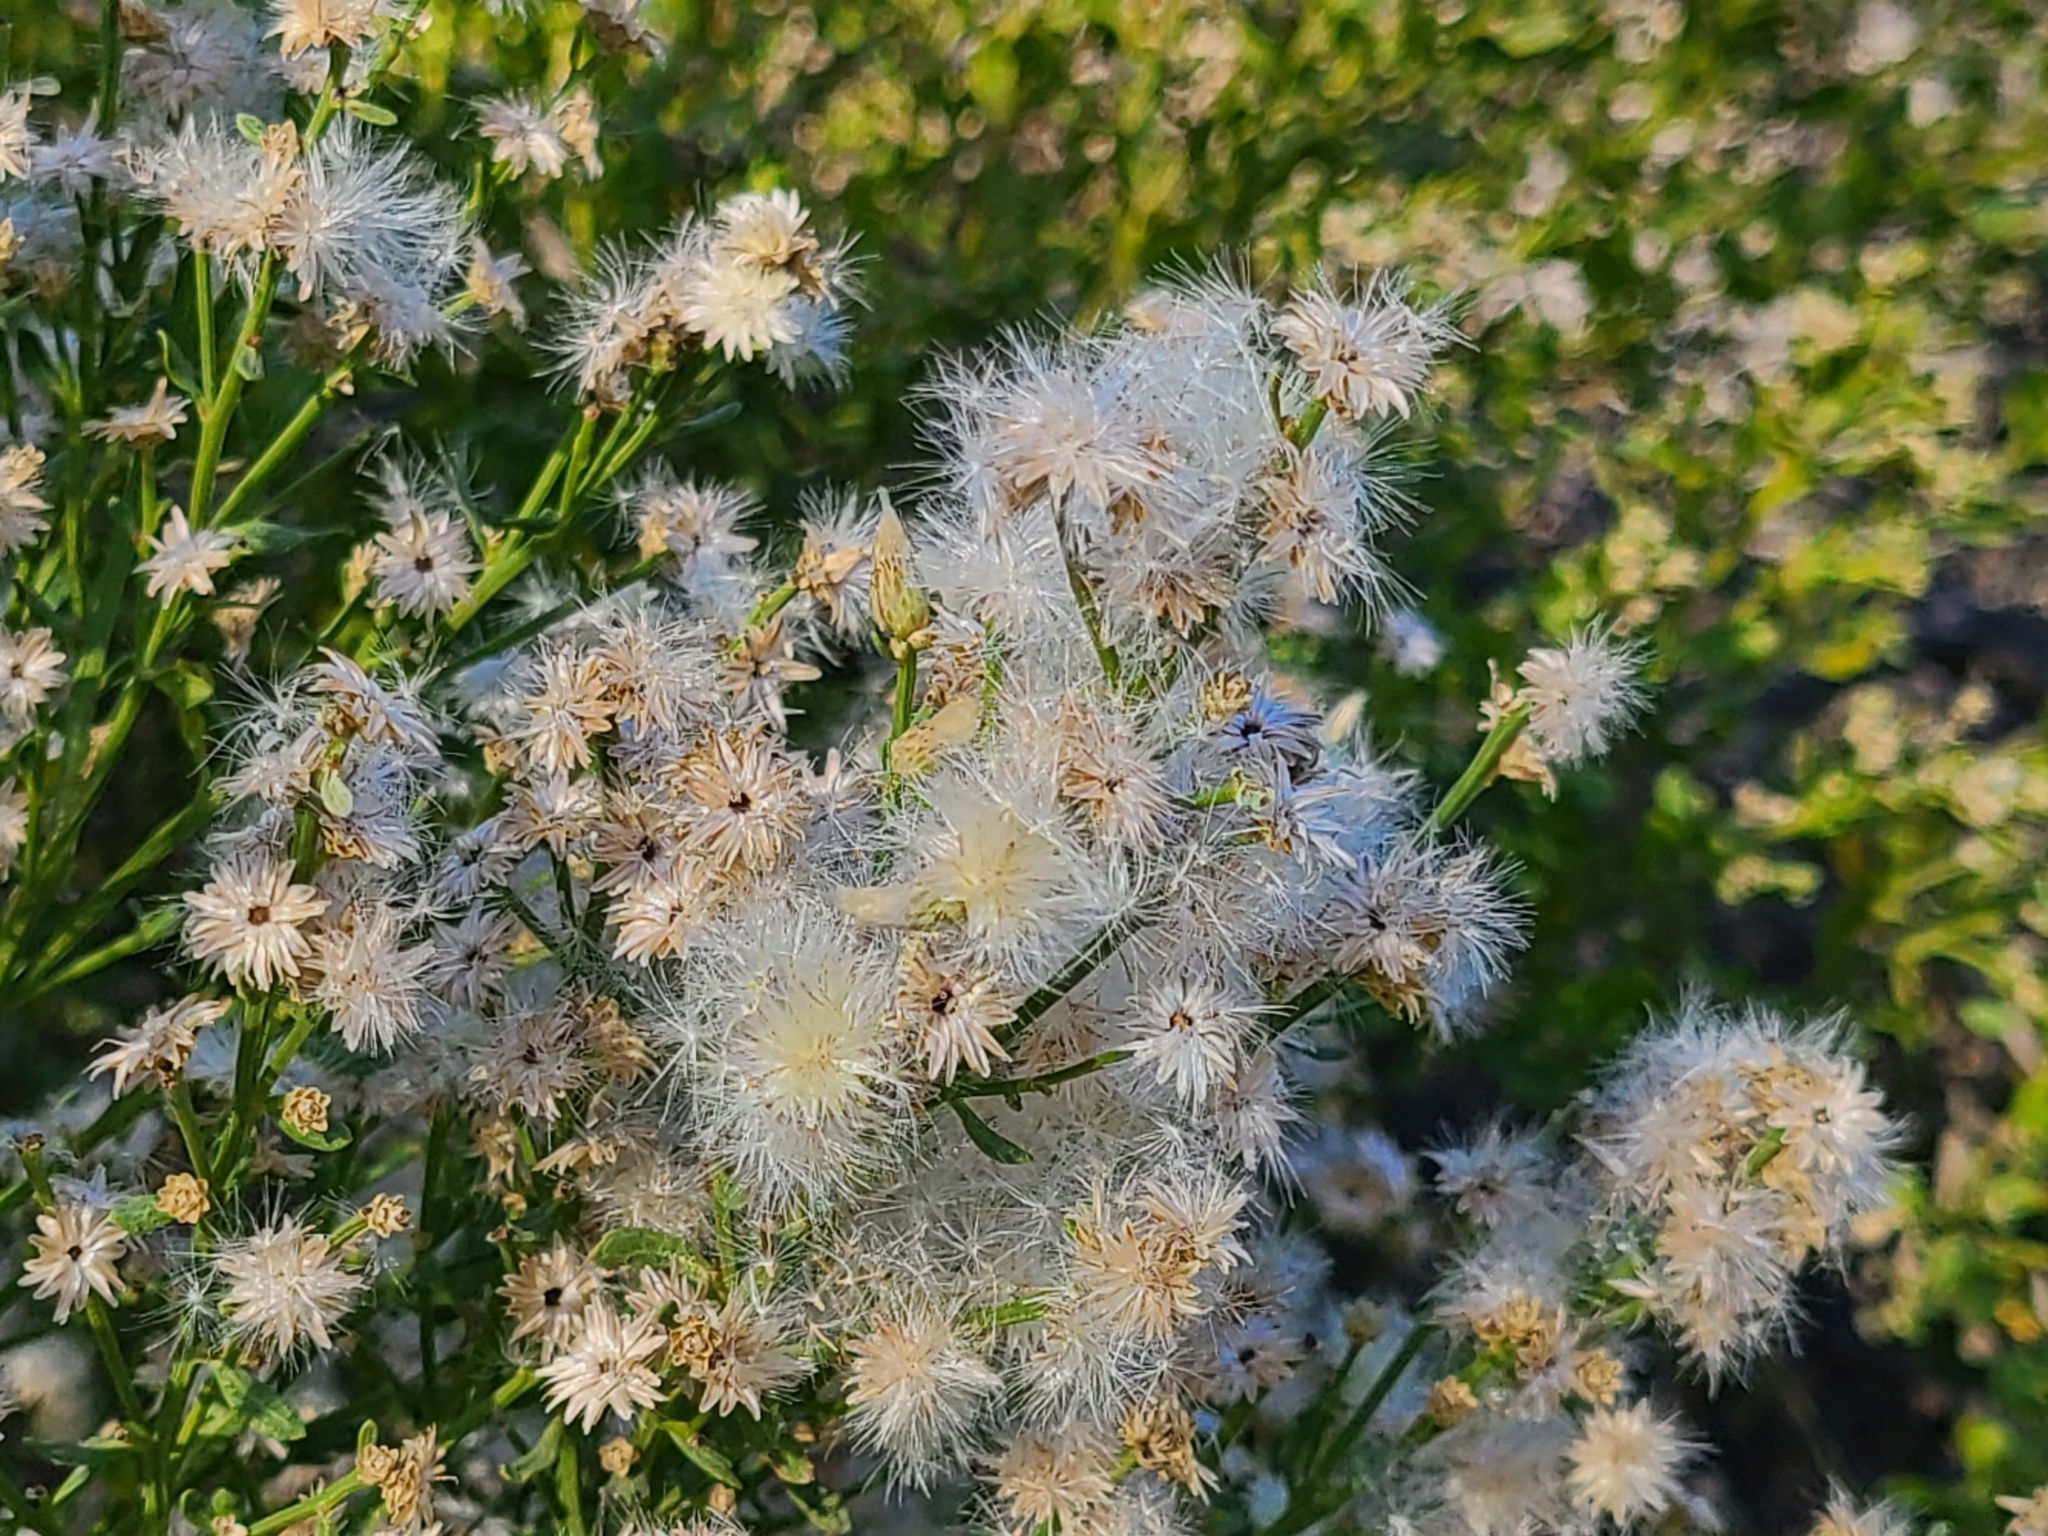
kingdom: Plantae
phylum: Tracheophyta
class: Magnoliopsida
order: Asterales
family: Asteraceae
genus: Baccharis
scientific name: Baccharis sarothroides
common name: Desert-broom
